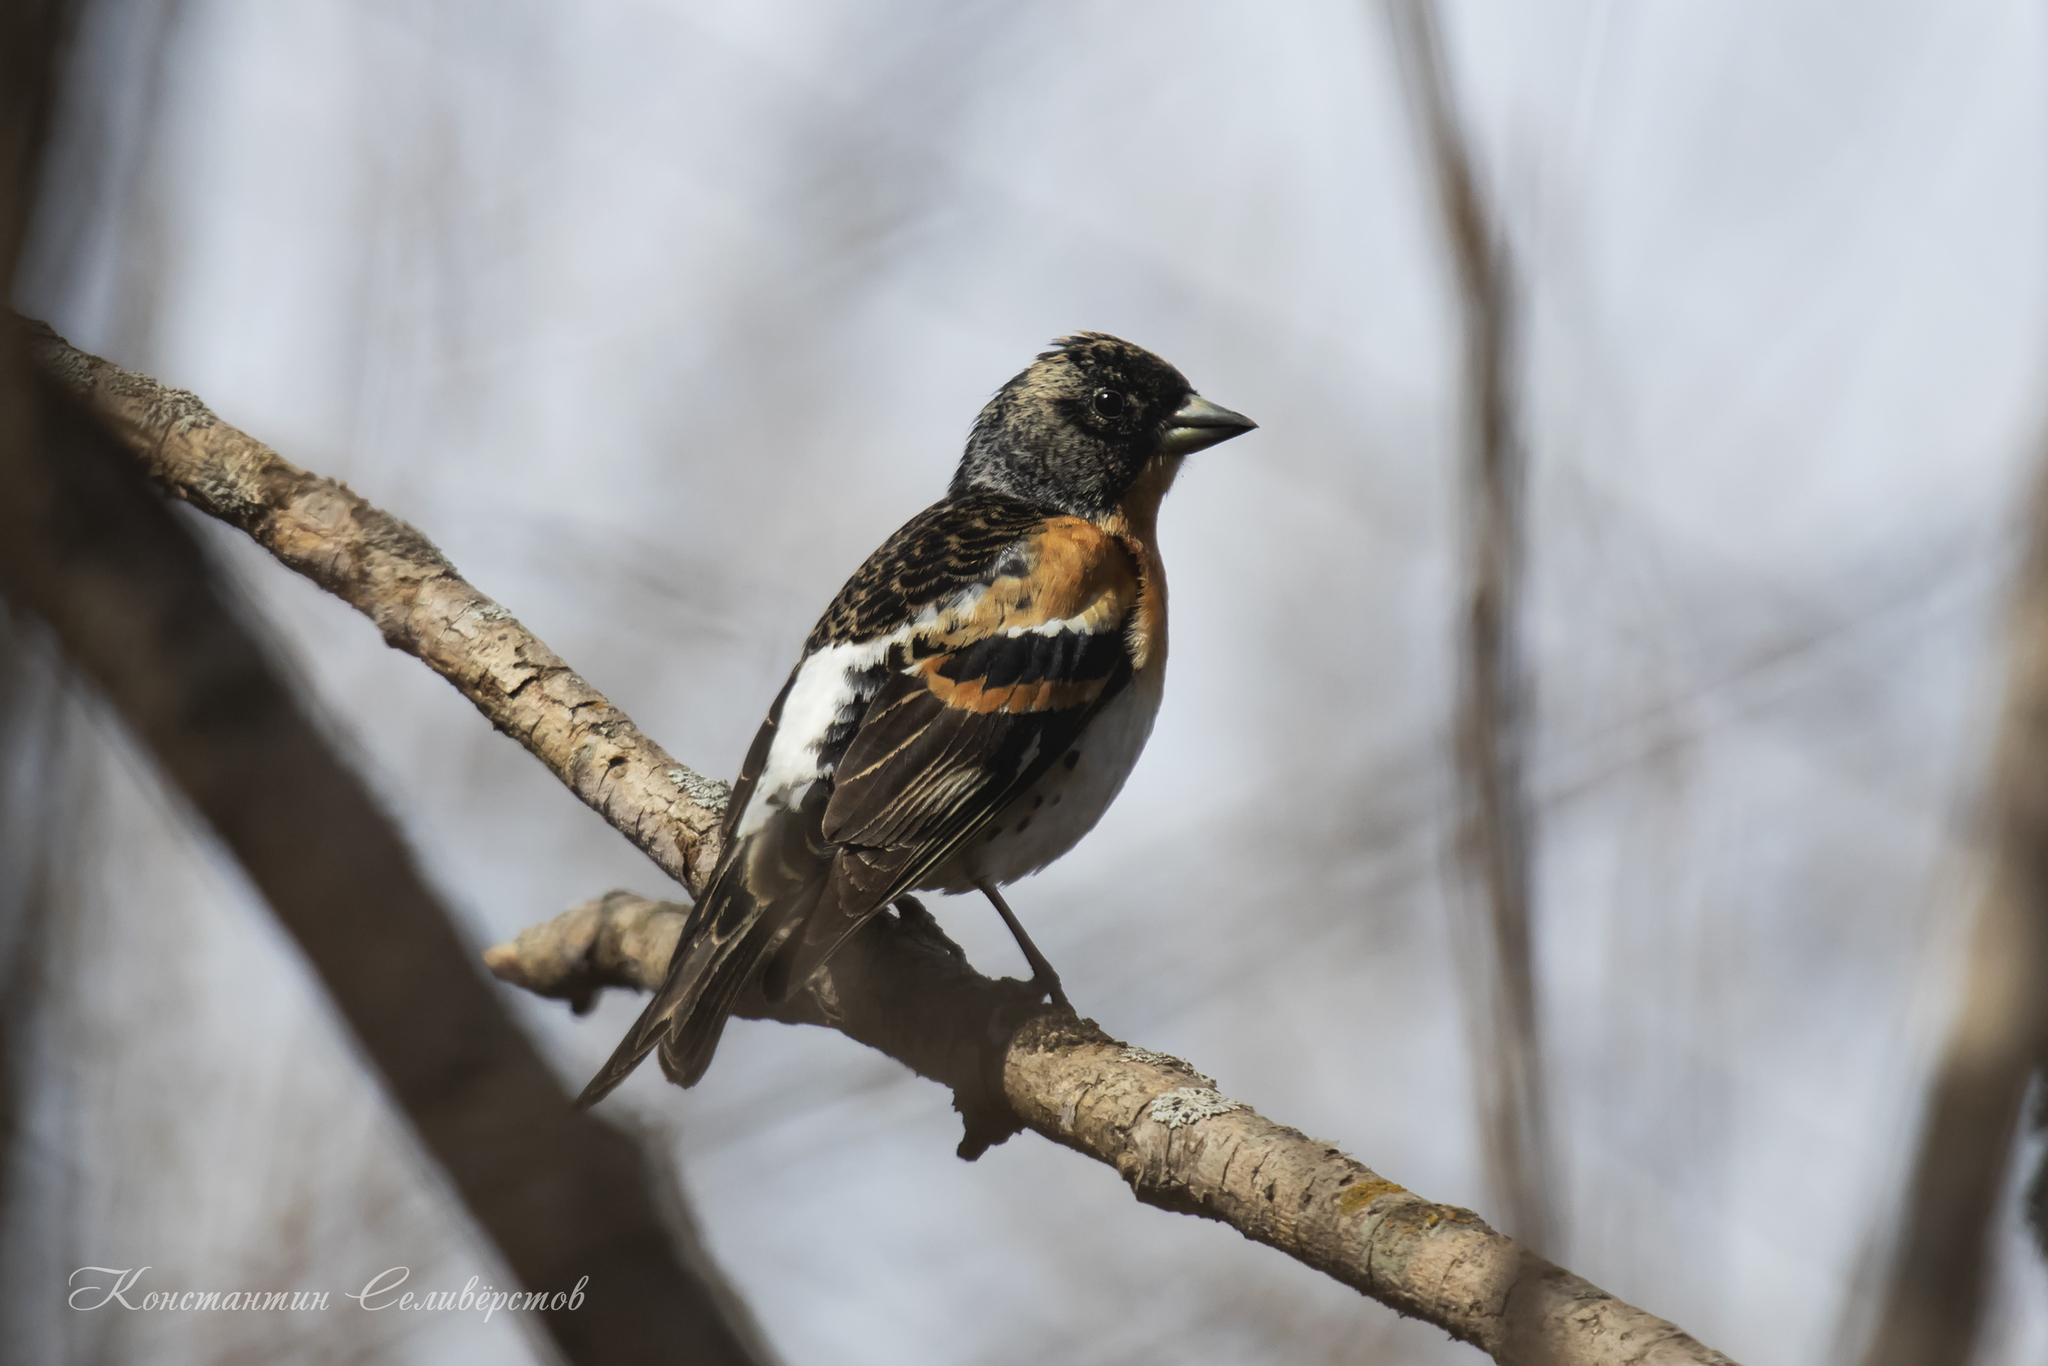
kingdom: Animalia
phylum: Chordata
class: Aves
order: Passeriformes
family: Fringillidae
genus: Fringilla
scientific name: Fringilla montifringilla
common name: Brambling
